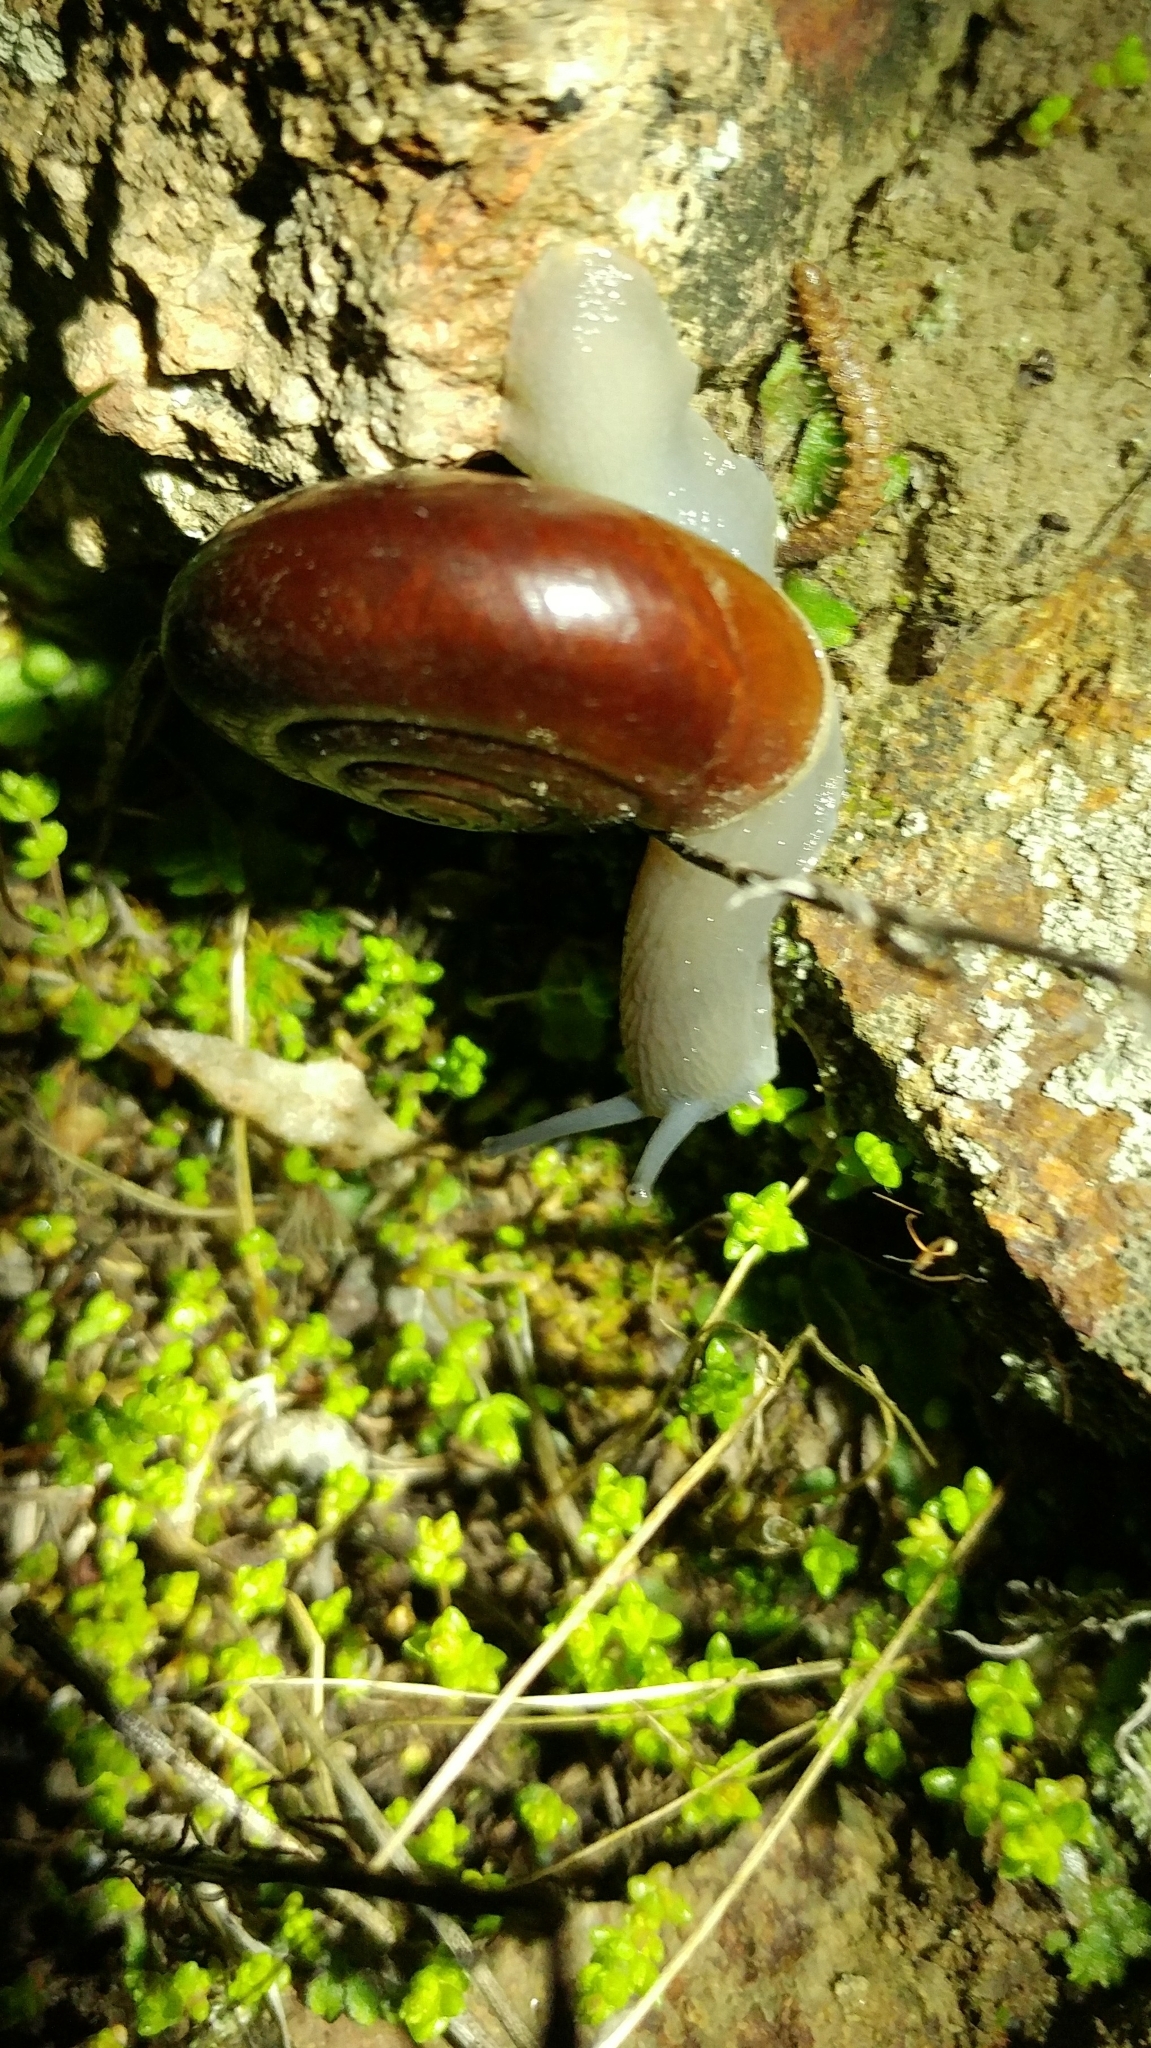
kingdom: Animalia
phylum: Mollusca
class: Gastropoda
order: Stylommatophora
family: Megomphicidae
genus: Glyptostoma
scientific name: Glyptostoma newberryanum
